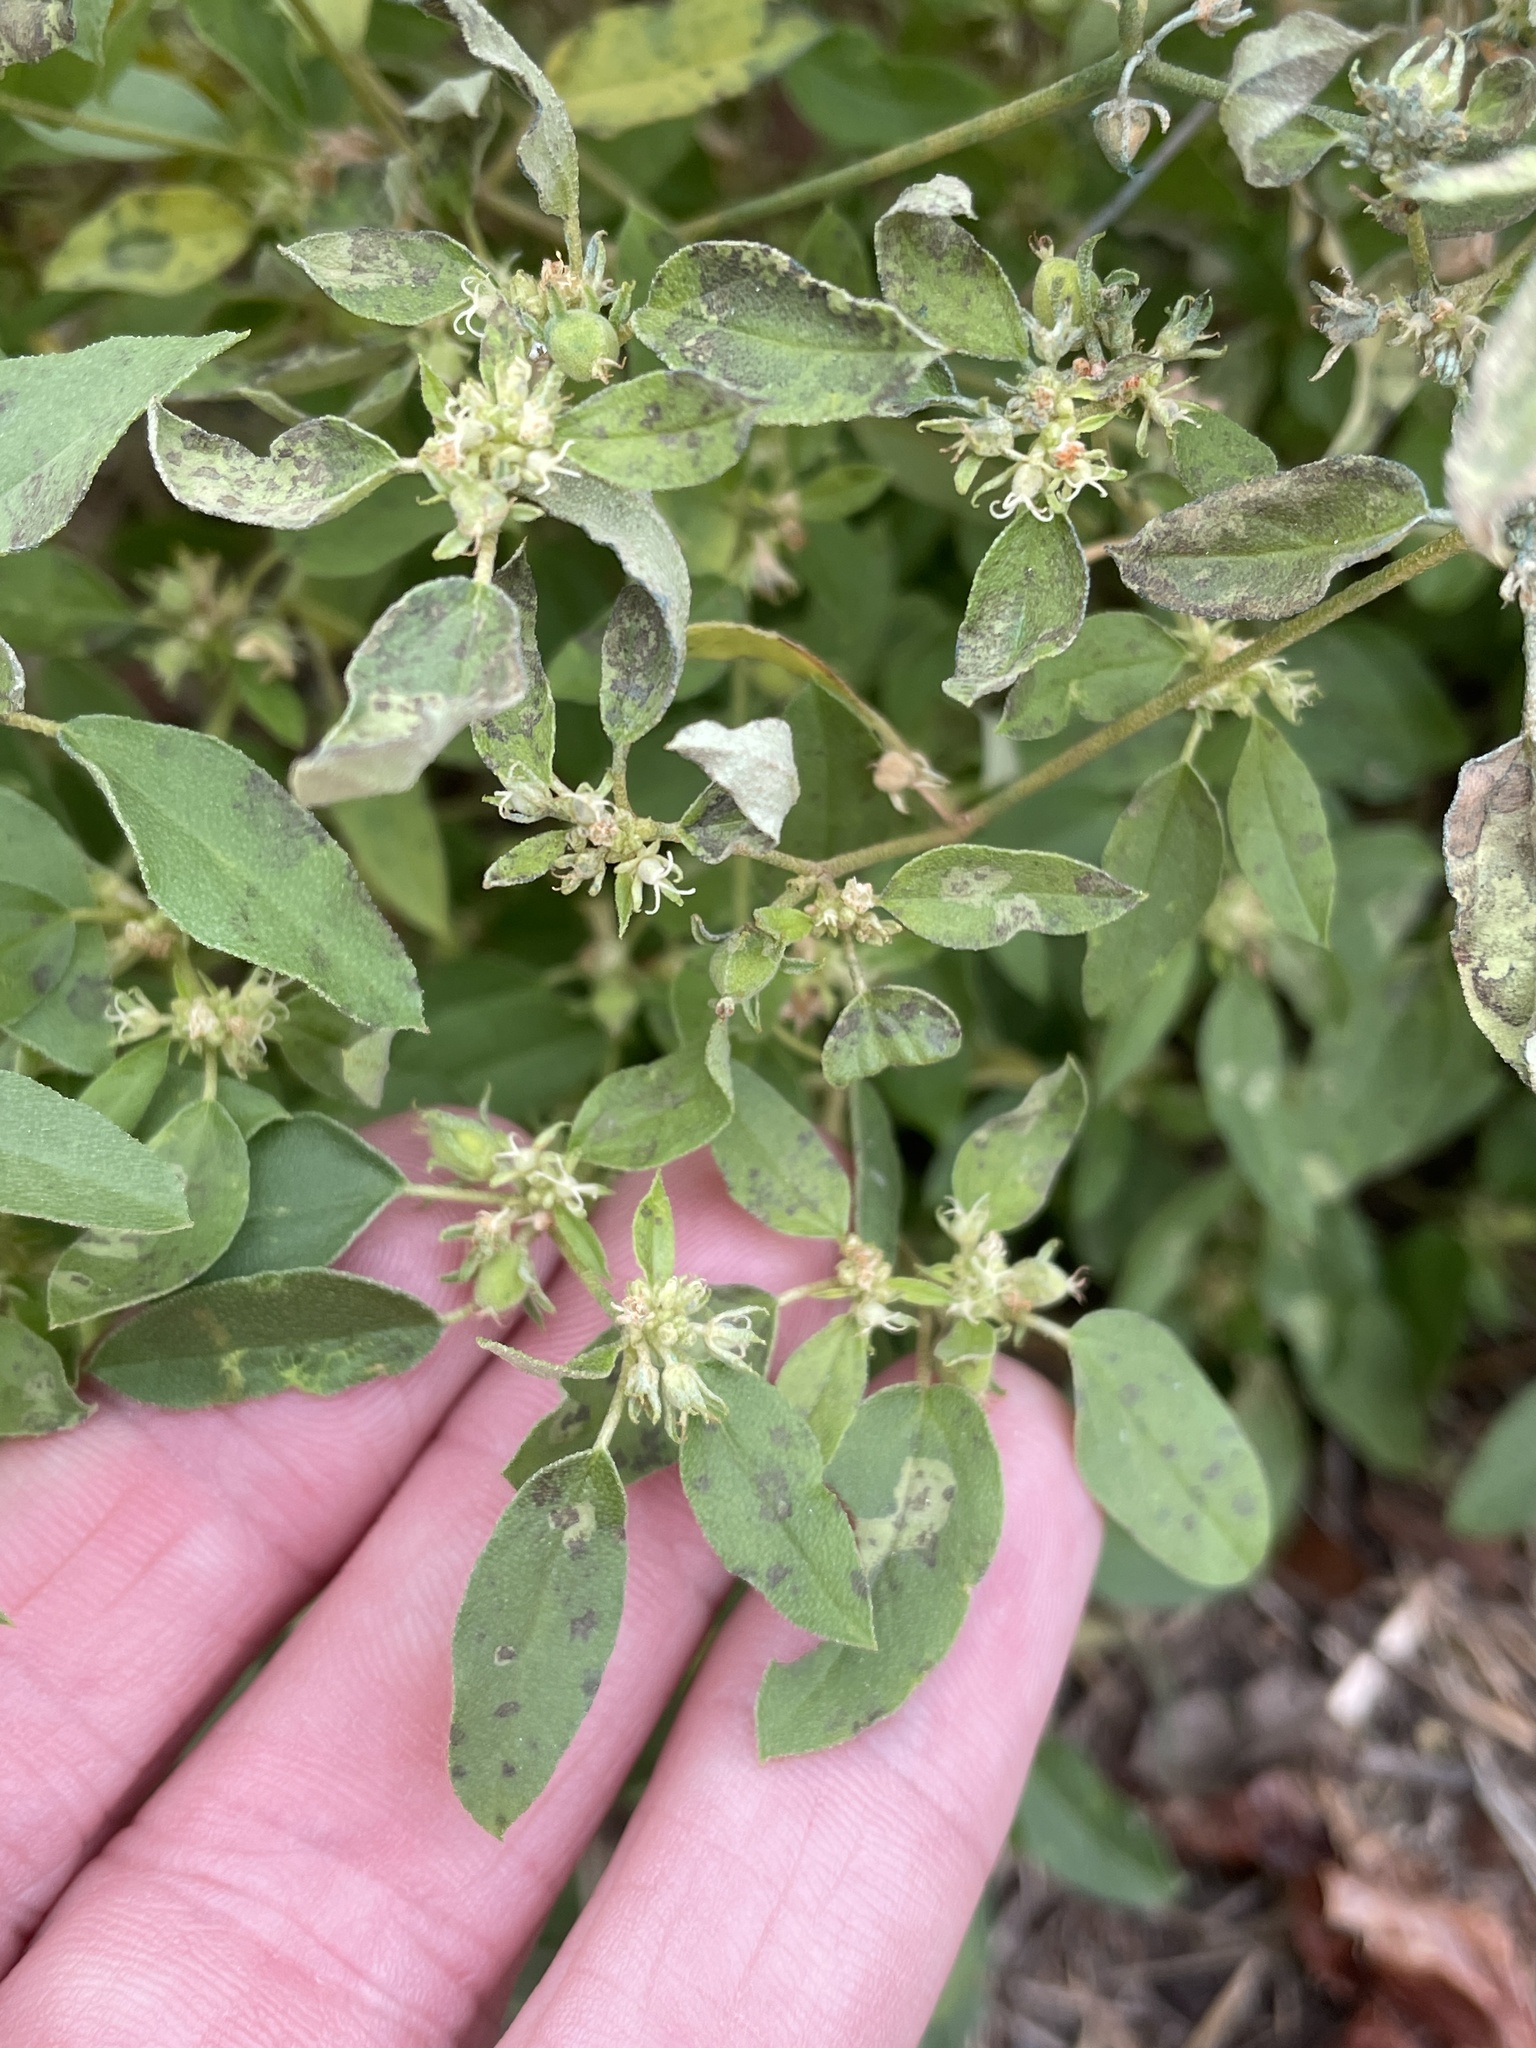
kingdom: Plantae
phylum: Tracheophyta
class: Magnoliopsida
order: Malpighiales
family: Euphorbiaceae
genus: Croton
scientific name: Croton monanthogynus
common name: One-seed croton
